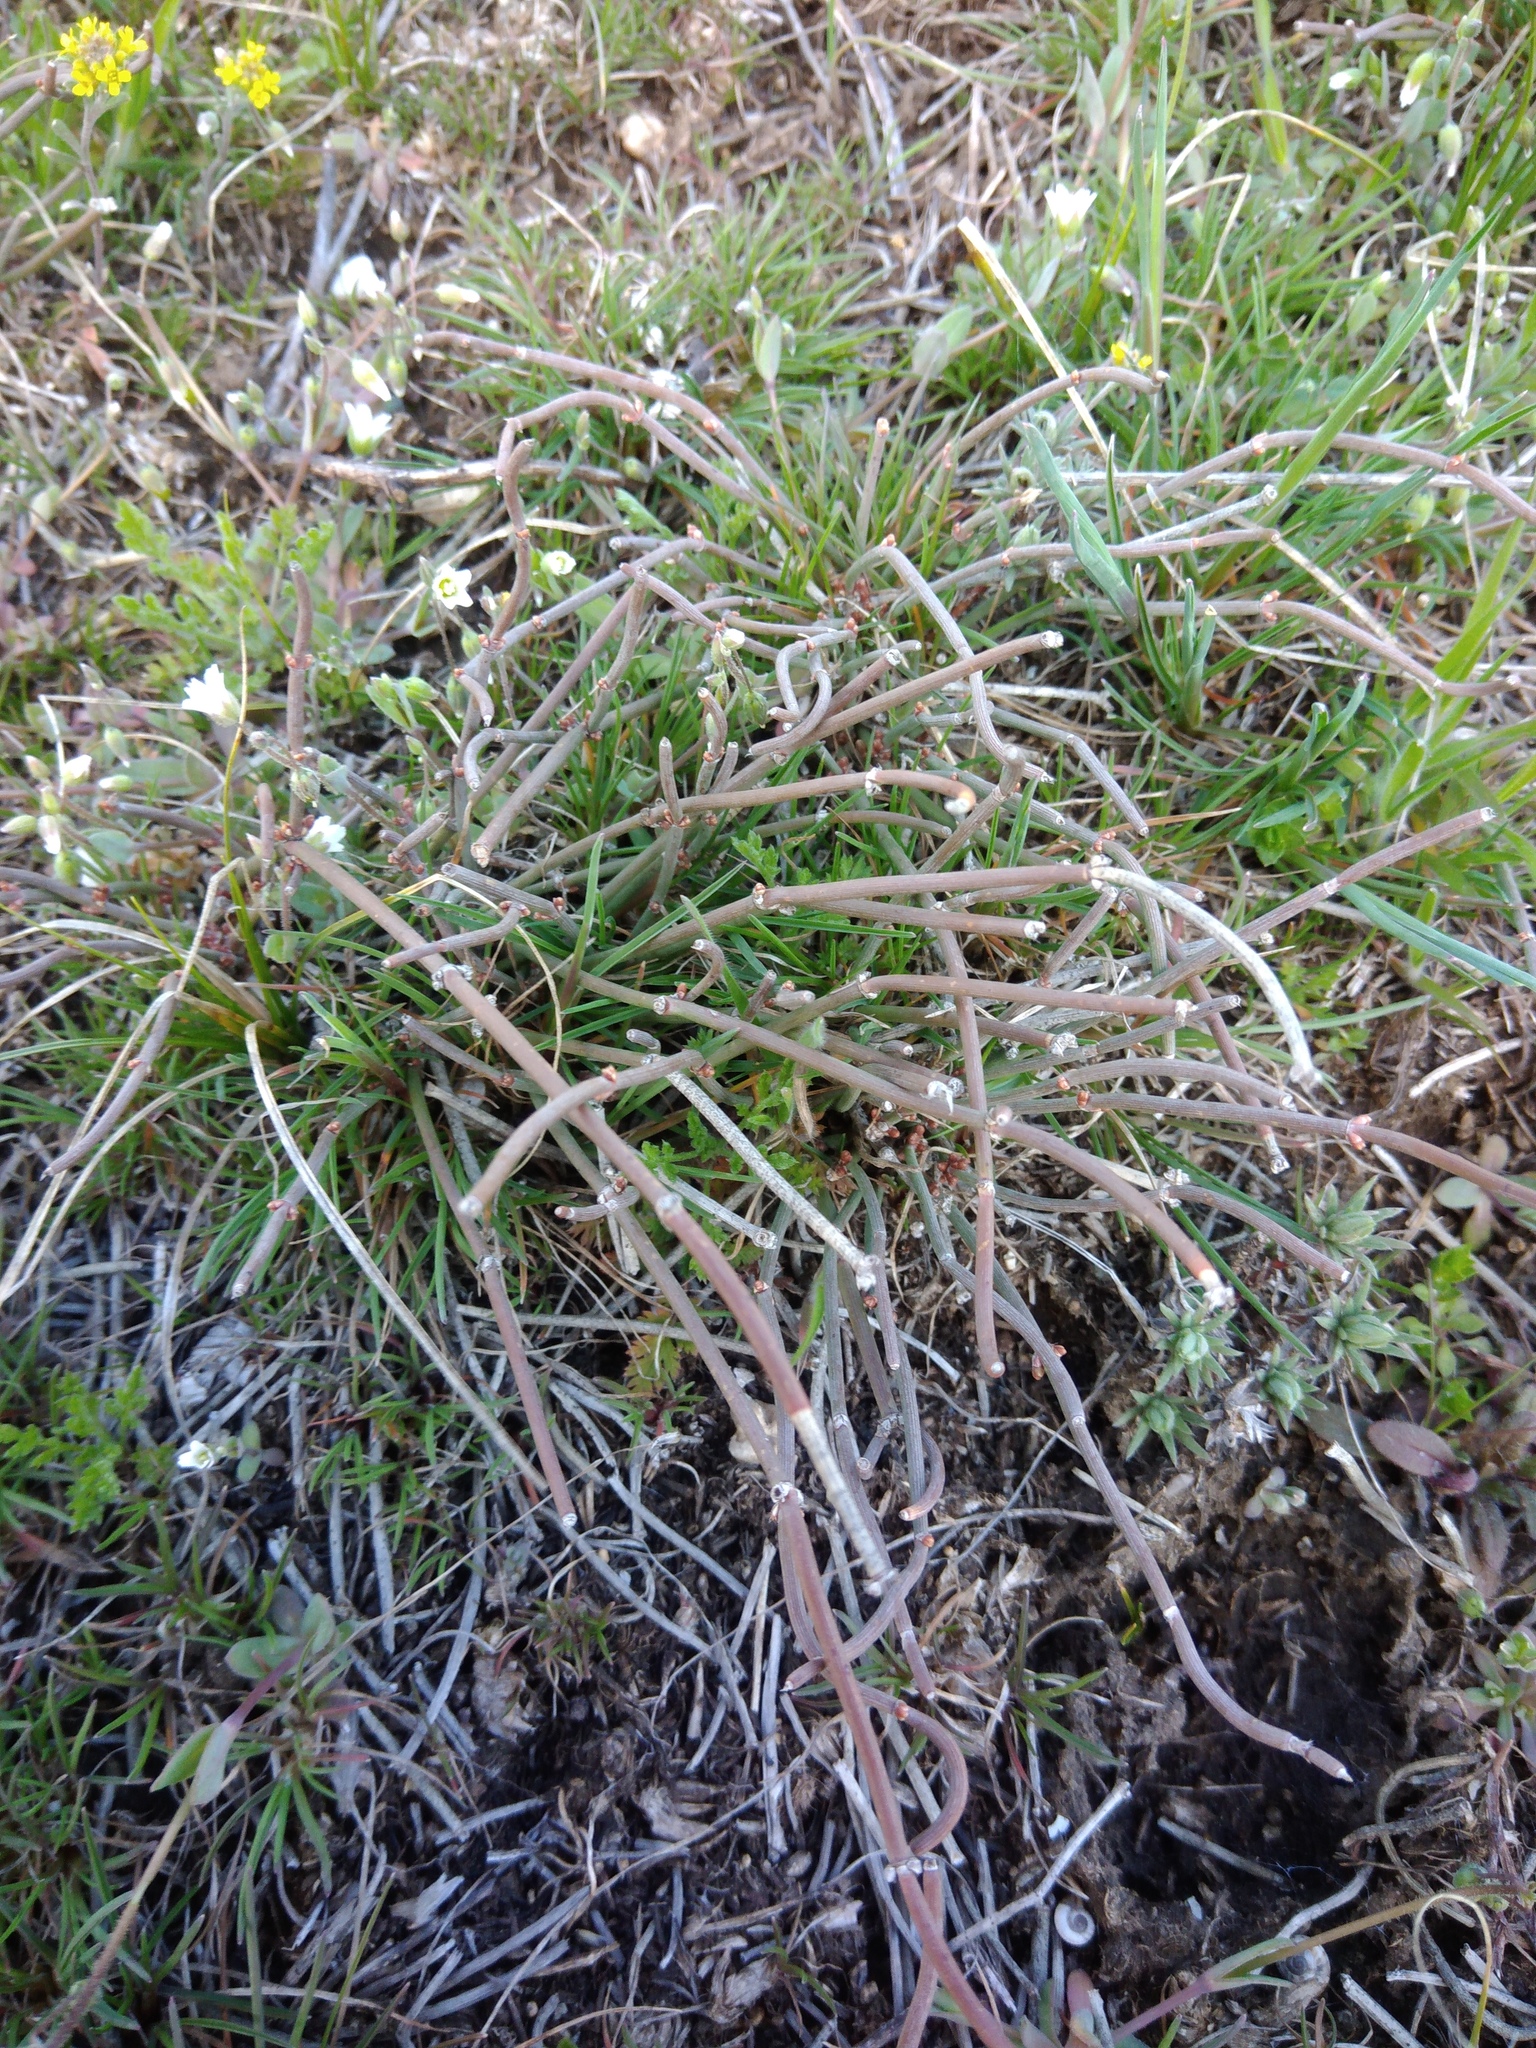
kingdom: Plantae
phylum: Tracheophyta
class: Gnetopsida
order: Ephedrales
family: Ephedraceae
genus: Ephedra
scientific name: Ephedra distachya
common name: Sea grape
